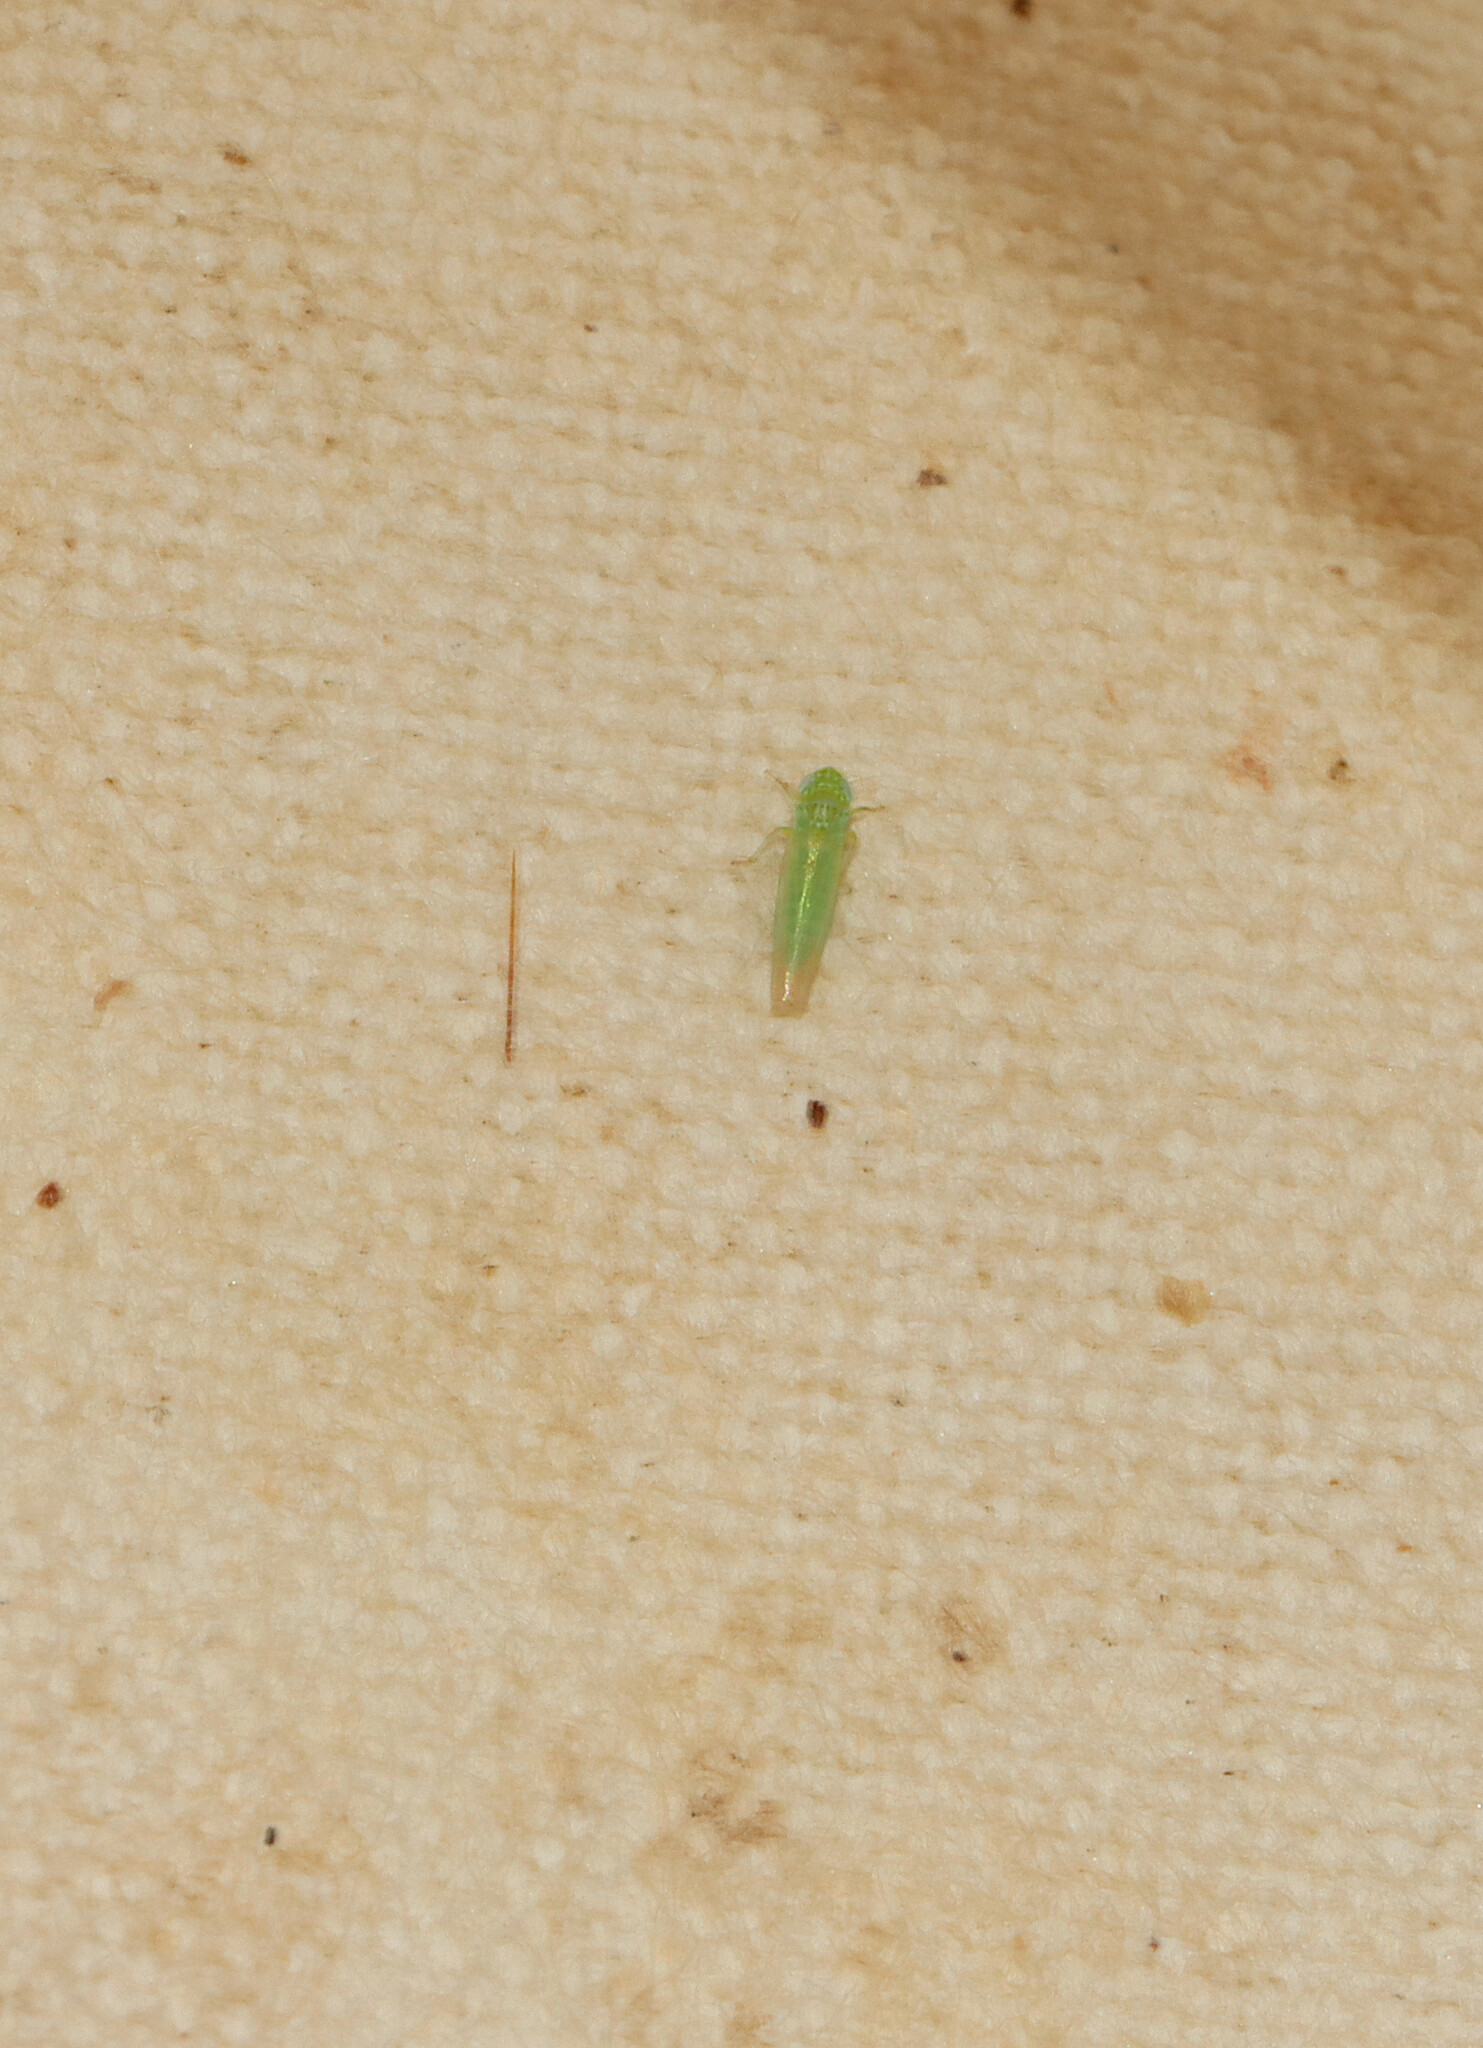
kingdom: Animalia
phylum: Arthropoda
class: Insecta
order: Hemiptera
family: Cicadellidae
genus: Empoasca
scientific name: Empoasca fabae
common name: Potato leafhopper
